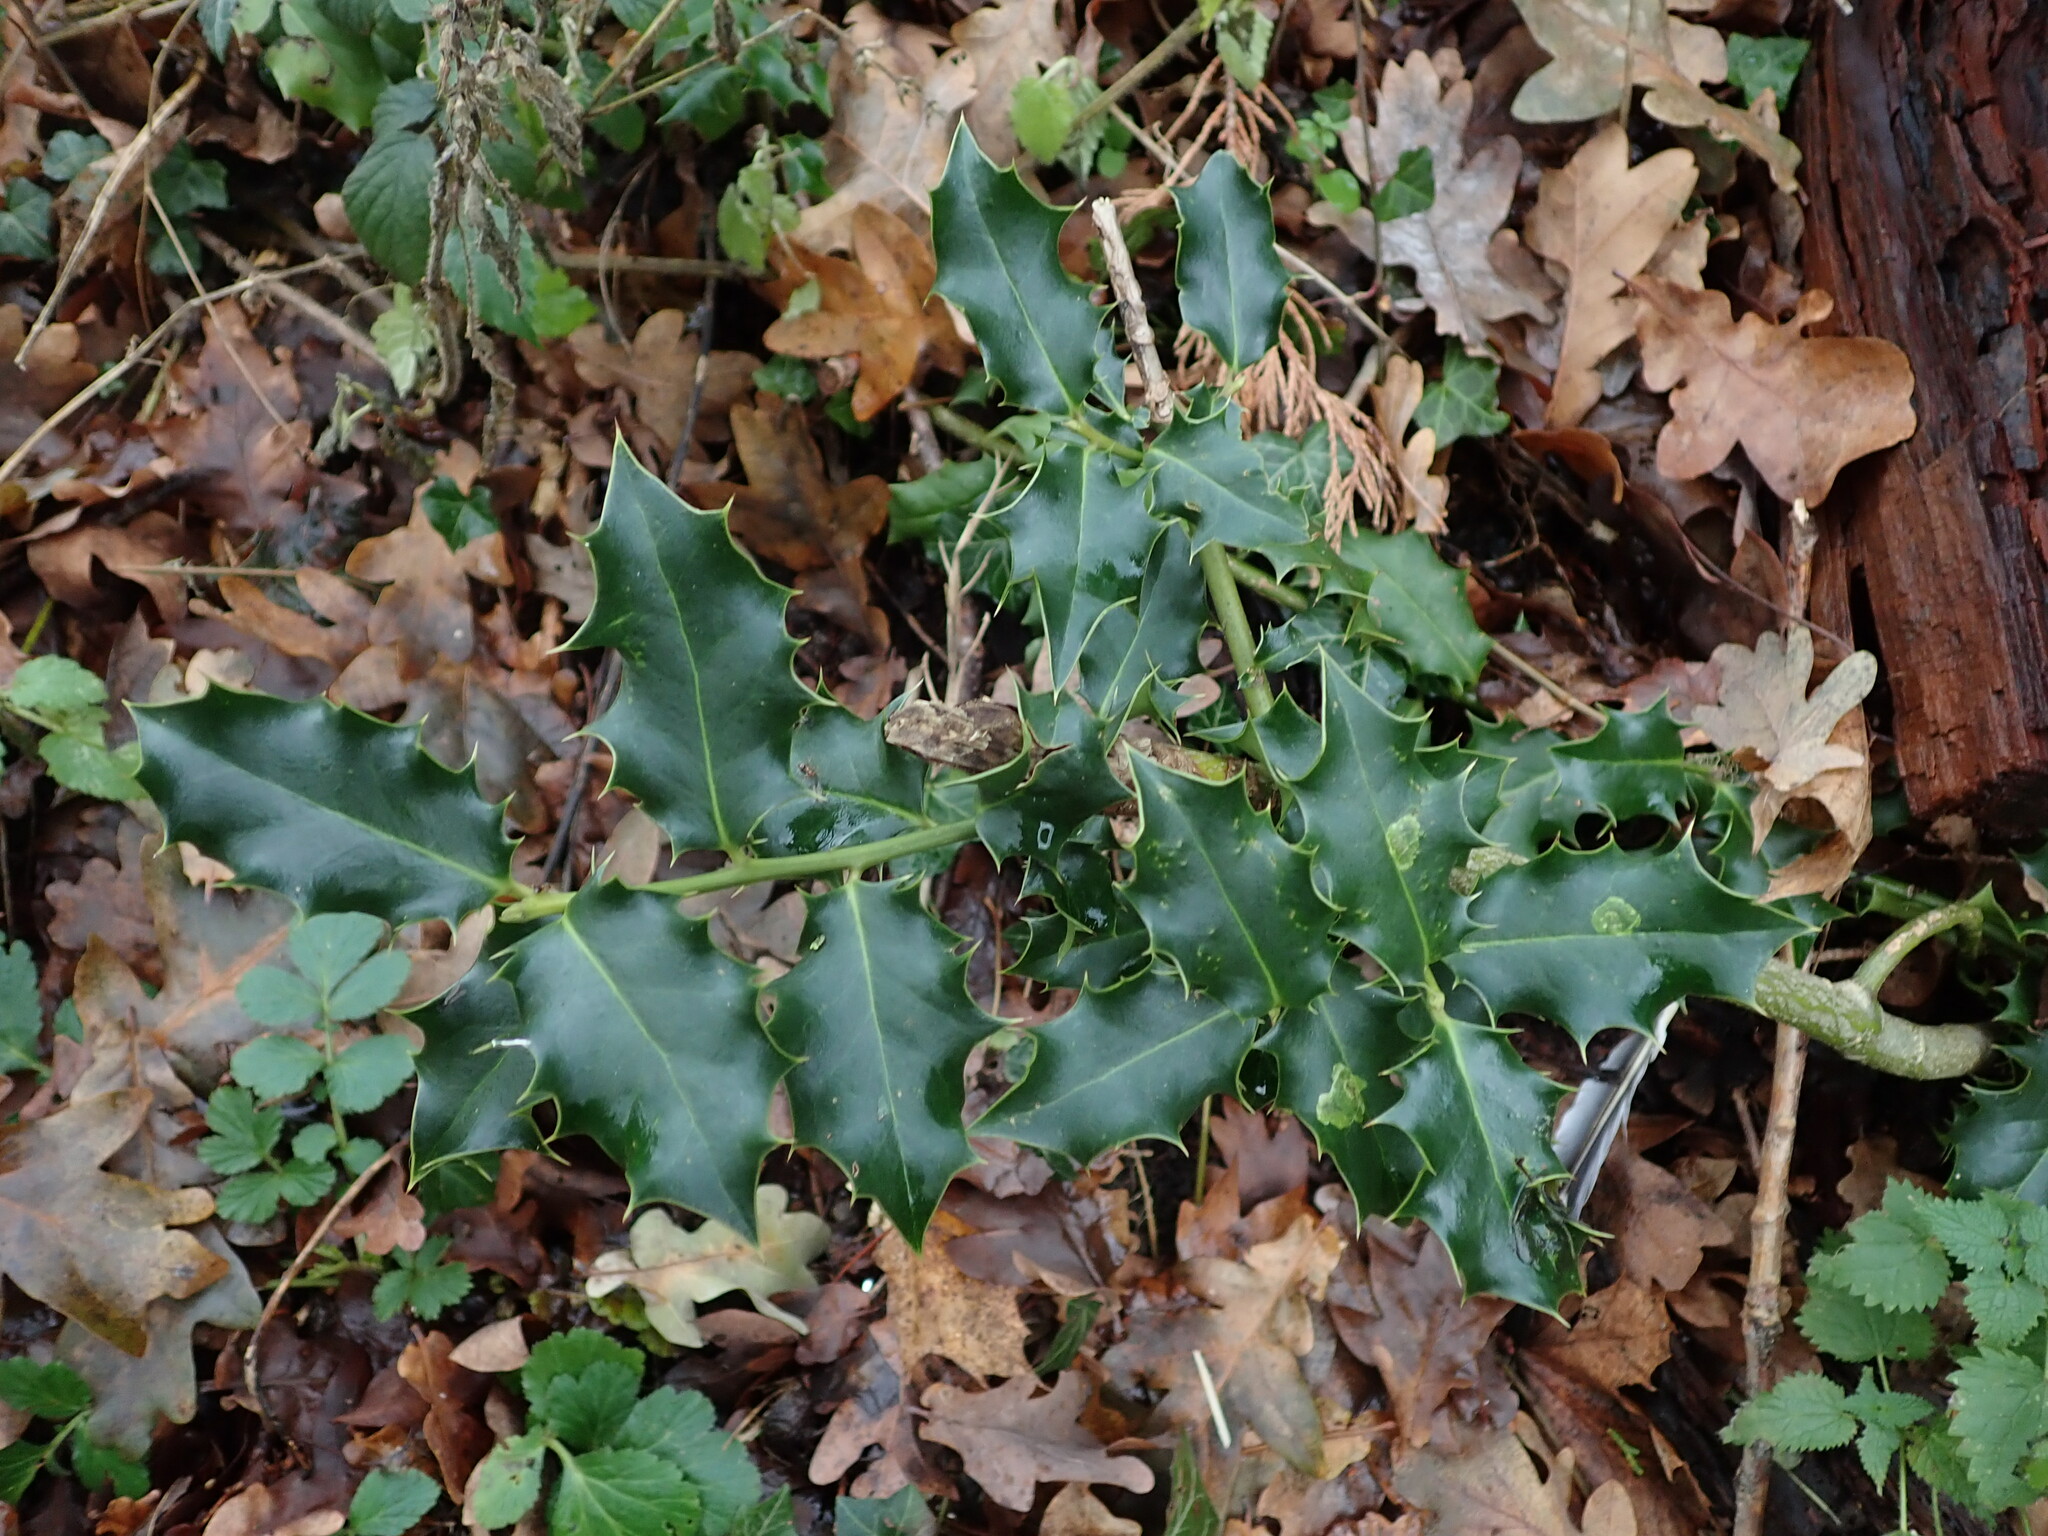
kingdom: Plantae
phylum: Tracheophyta
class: Magnoliopsida
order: Aquifoliales
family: Aquifoliaceae
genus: Ilex
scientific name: Ilex aquifolium
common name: English holly
